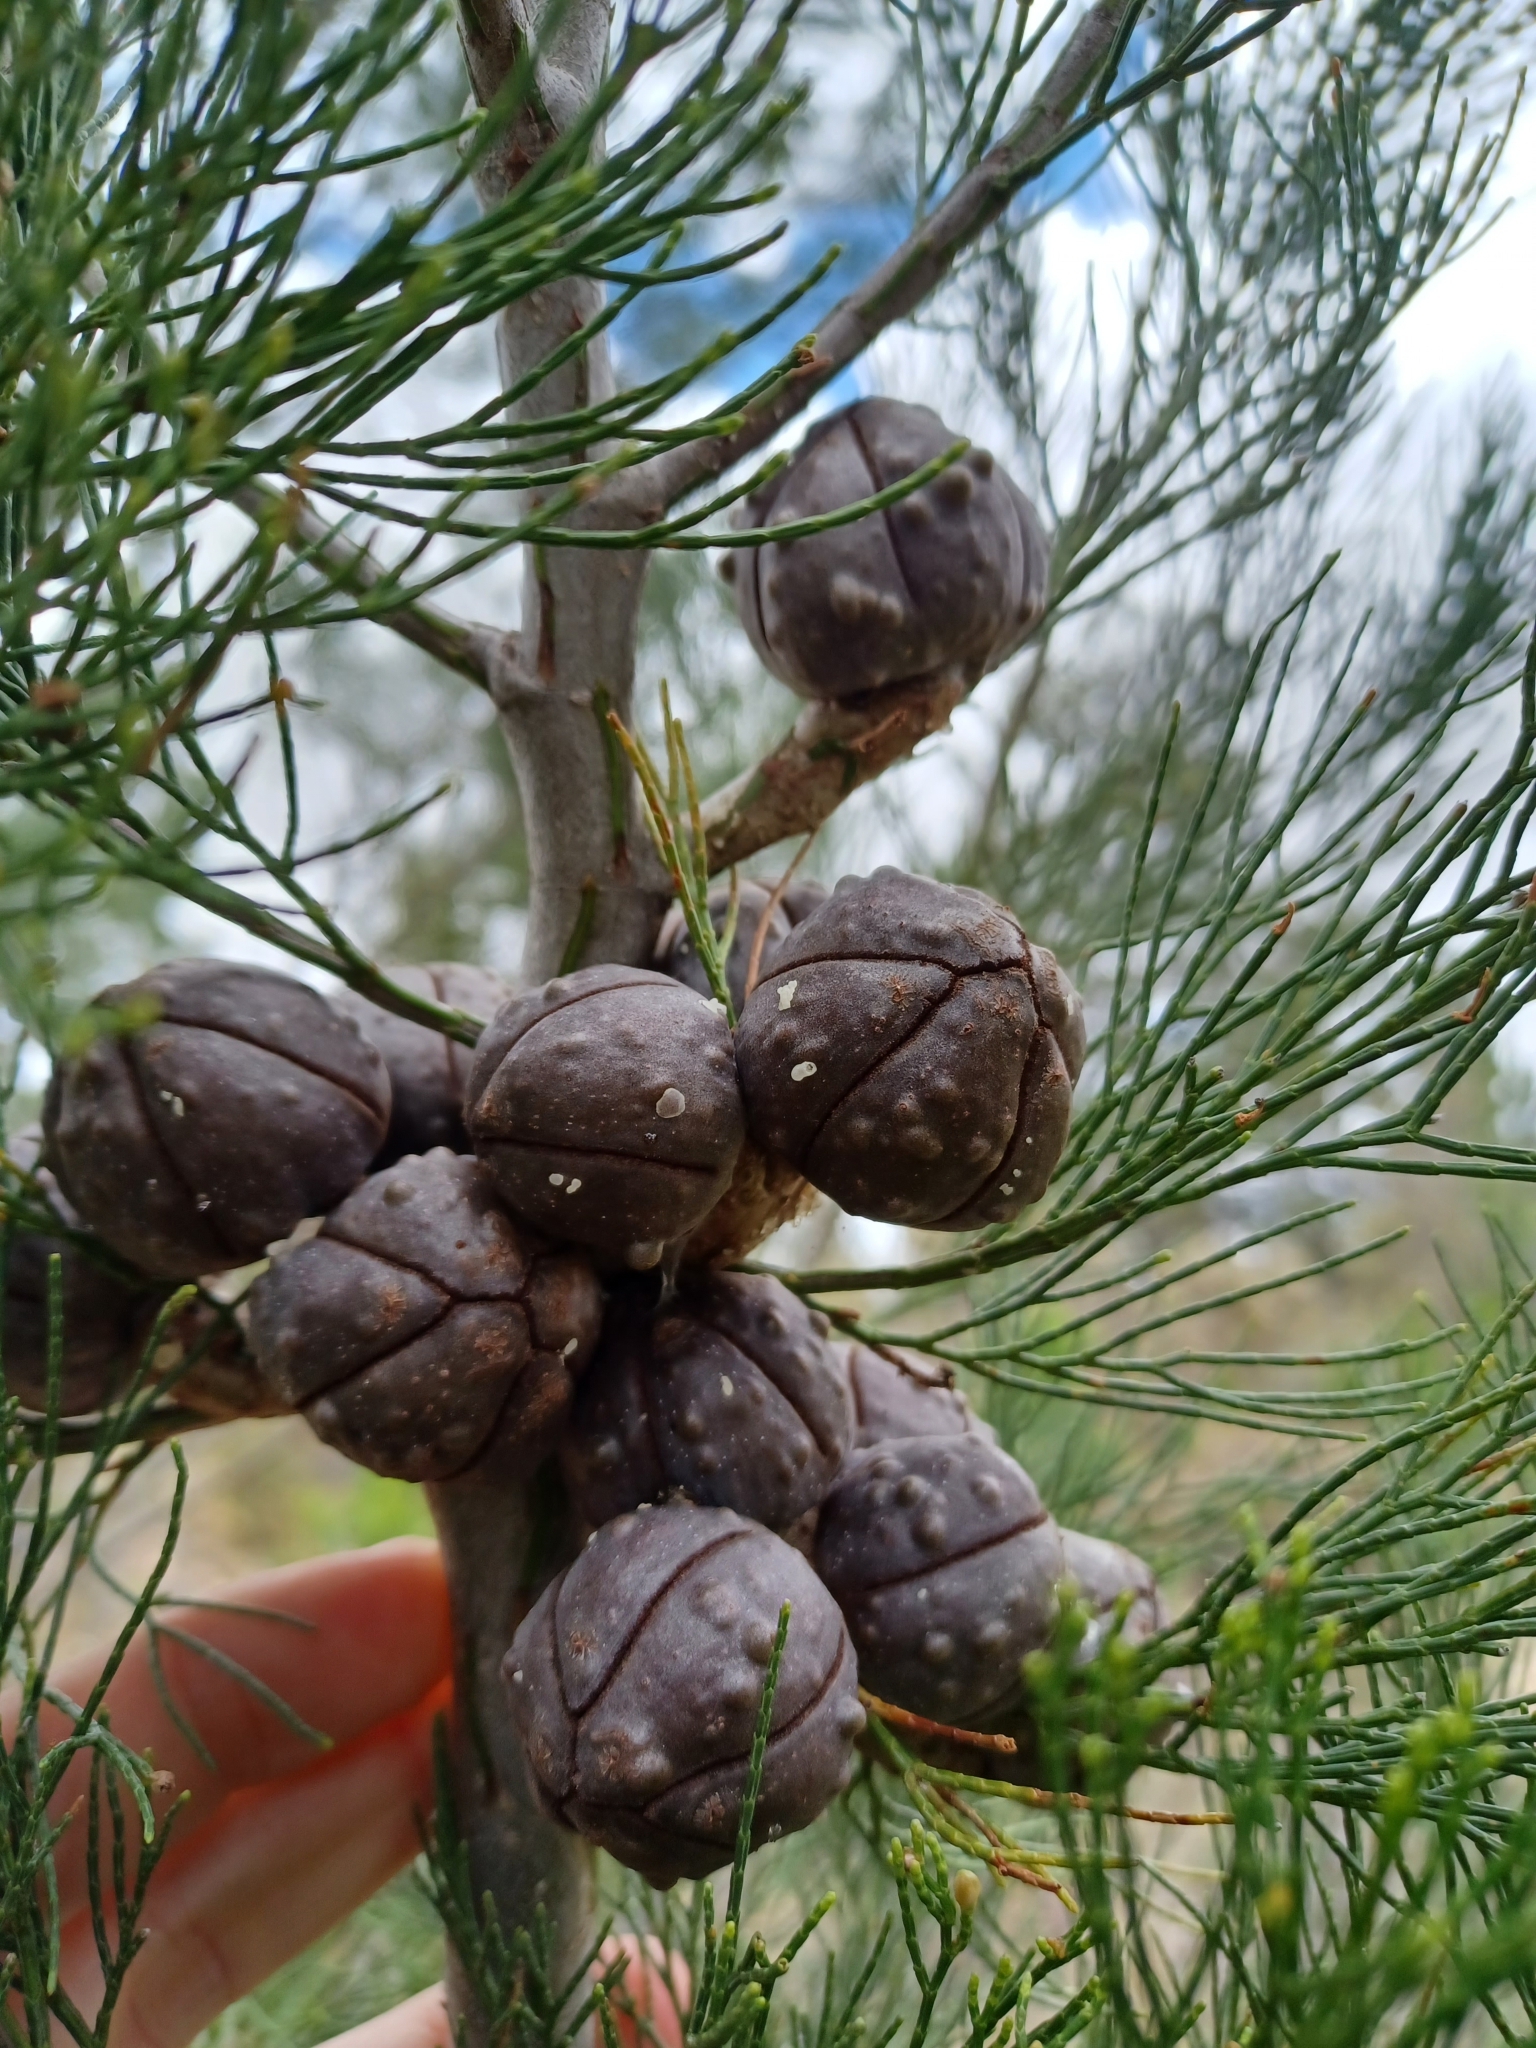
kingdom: Plantae
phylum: Tracheophyta
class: Pinopsida
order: Pinales
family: Cupressaceae
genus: Callitris
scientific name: Callitris preissii
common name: Mallee pine
